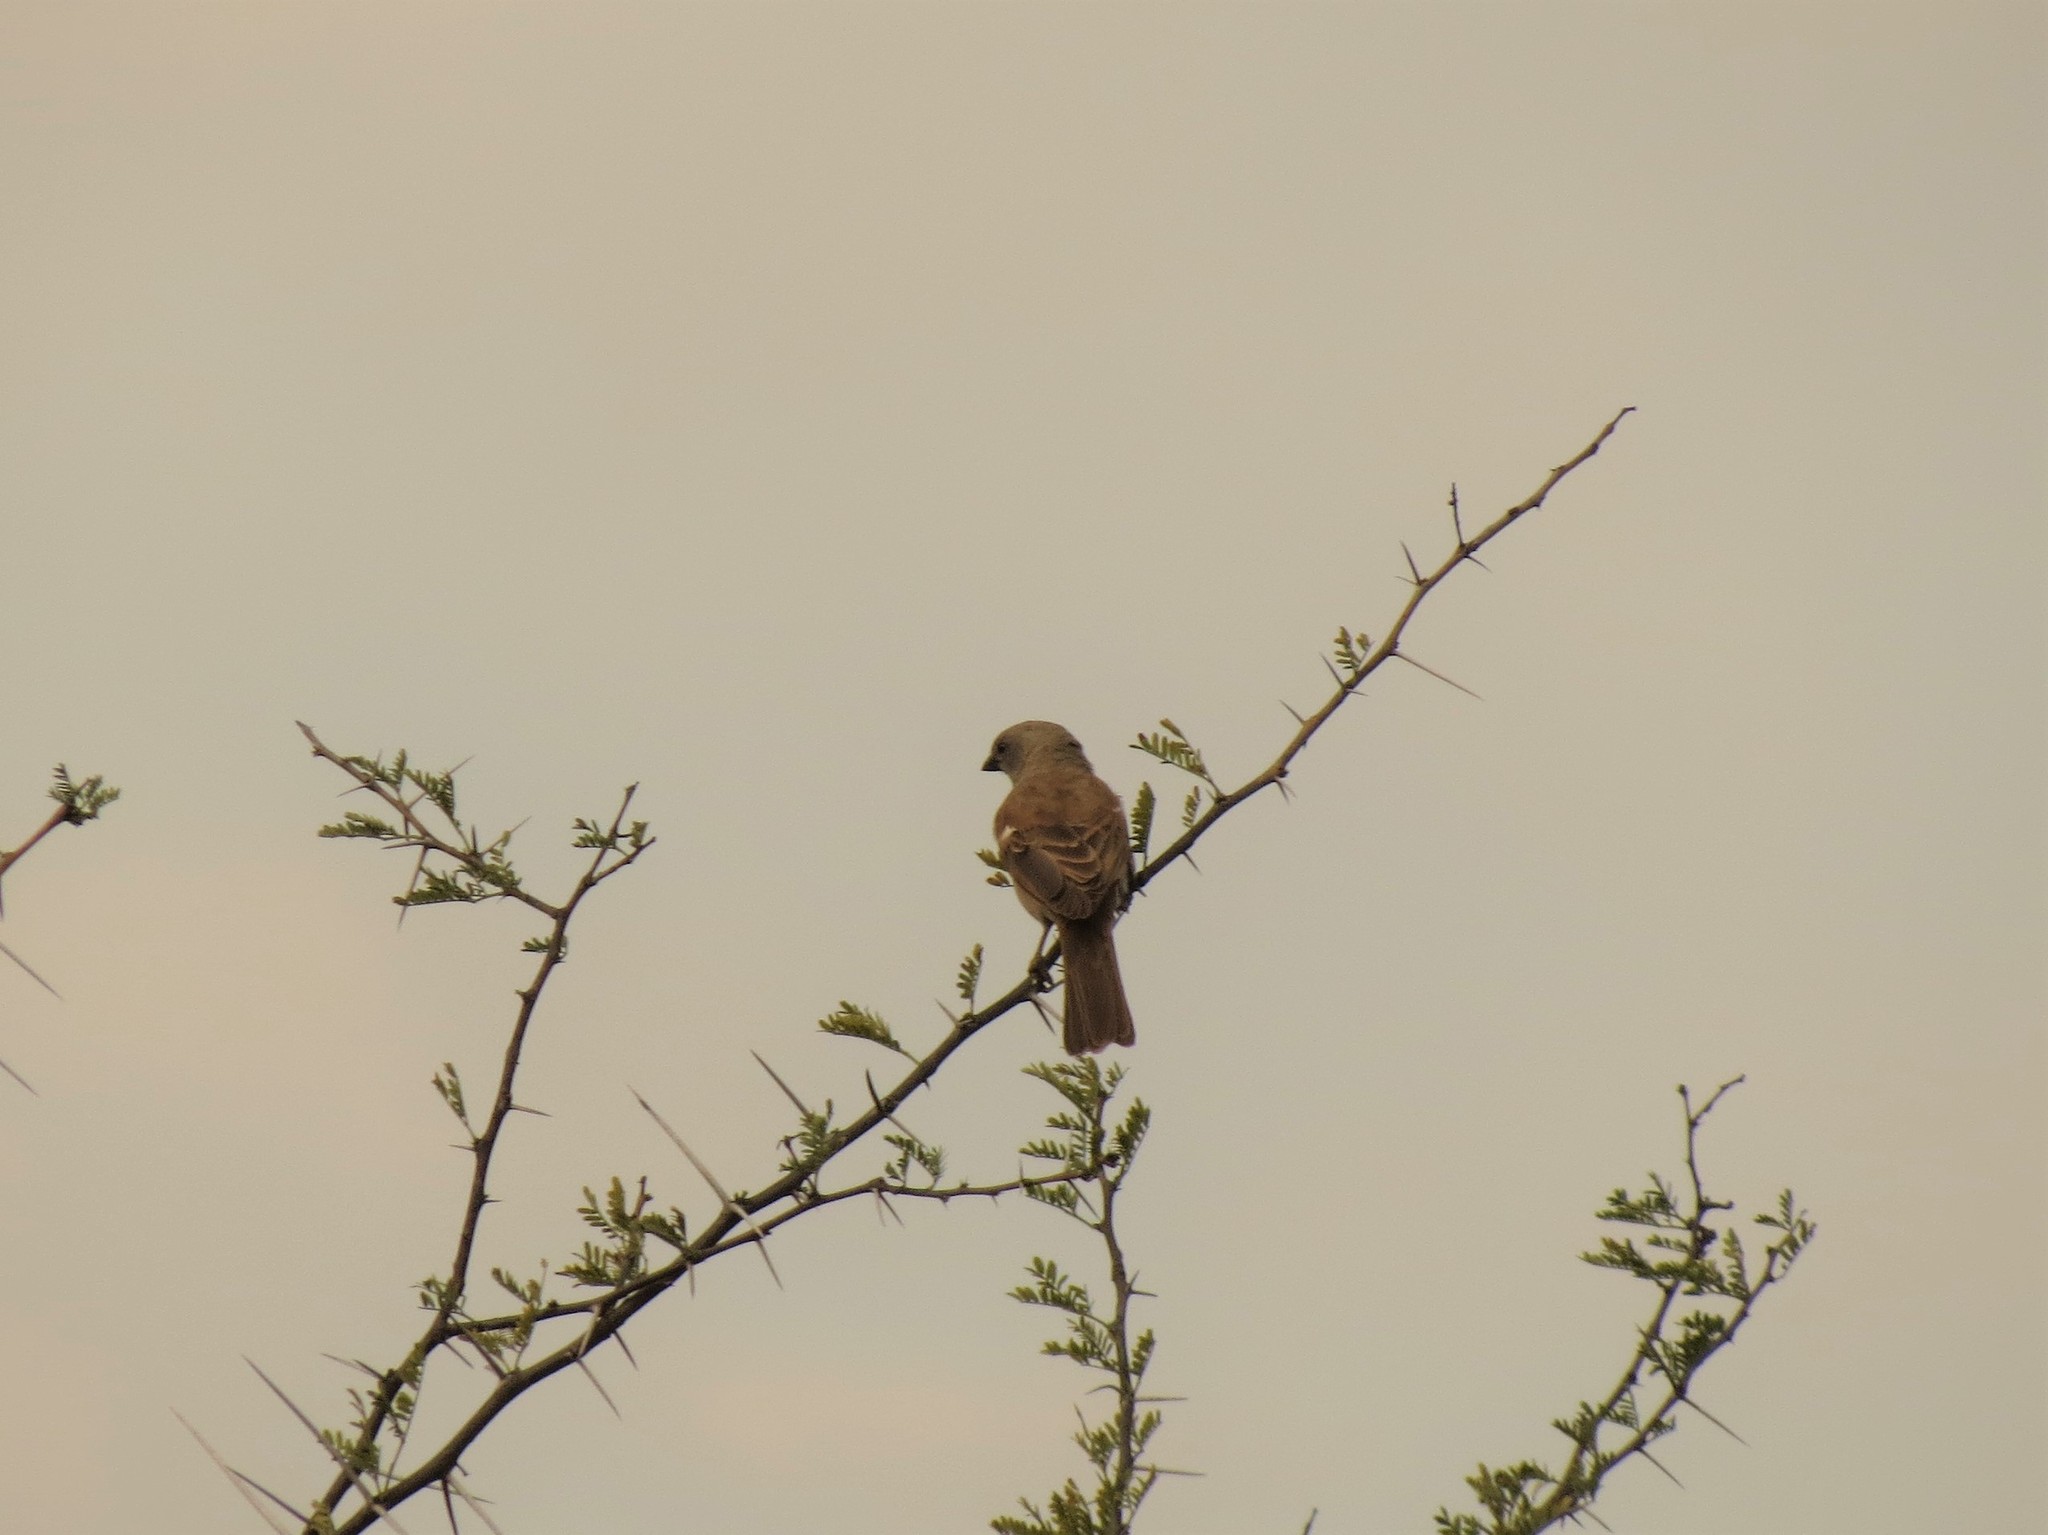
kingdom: Animalia
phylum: Chordata
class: Aves
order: Passeriformes
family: Passeridae
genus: Passer
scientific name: Passer diffusus
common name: Southern grey-headed sparrow
